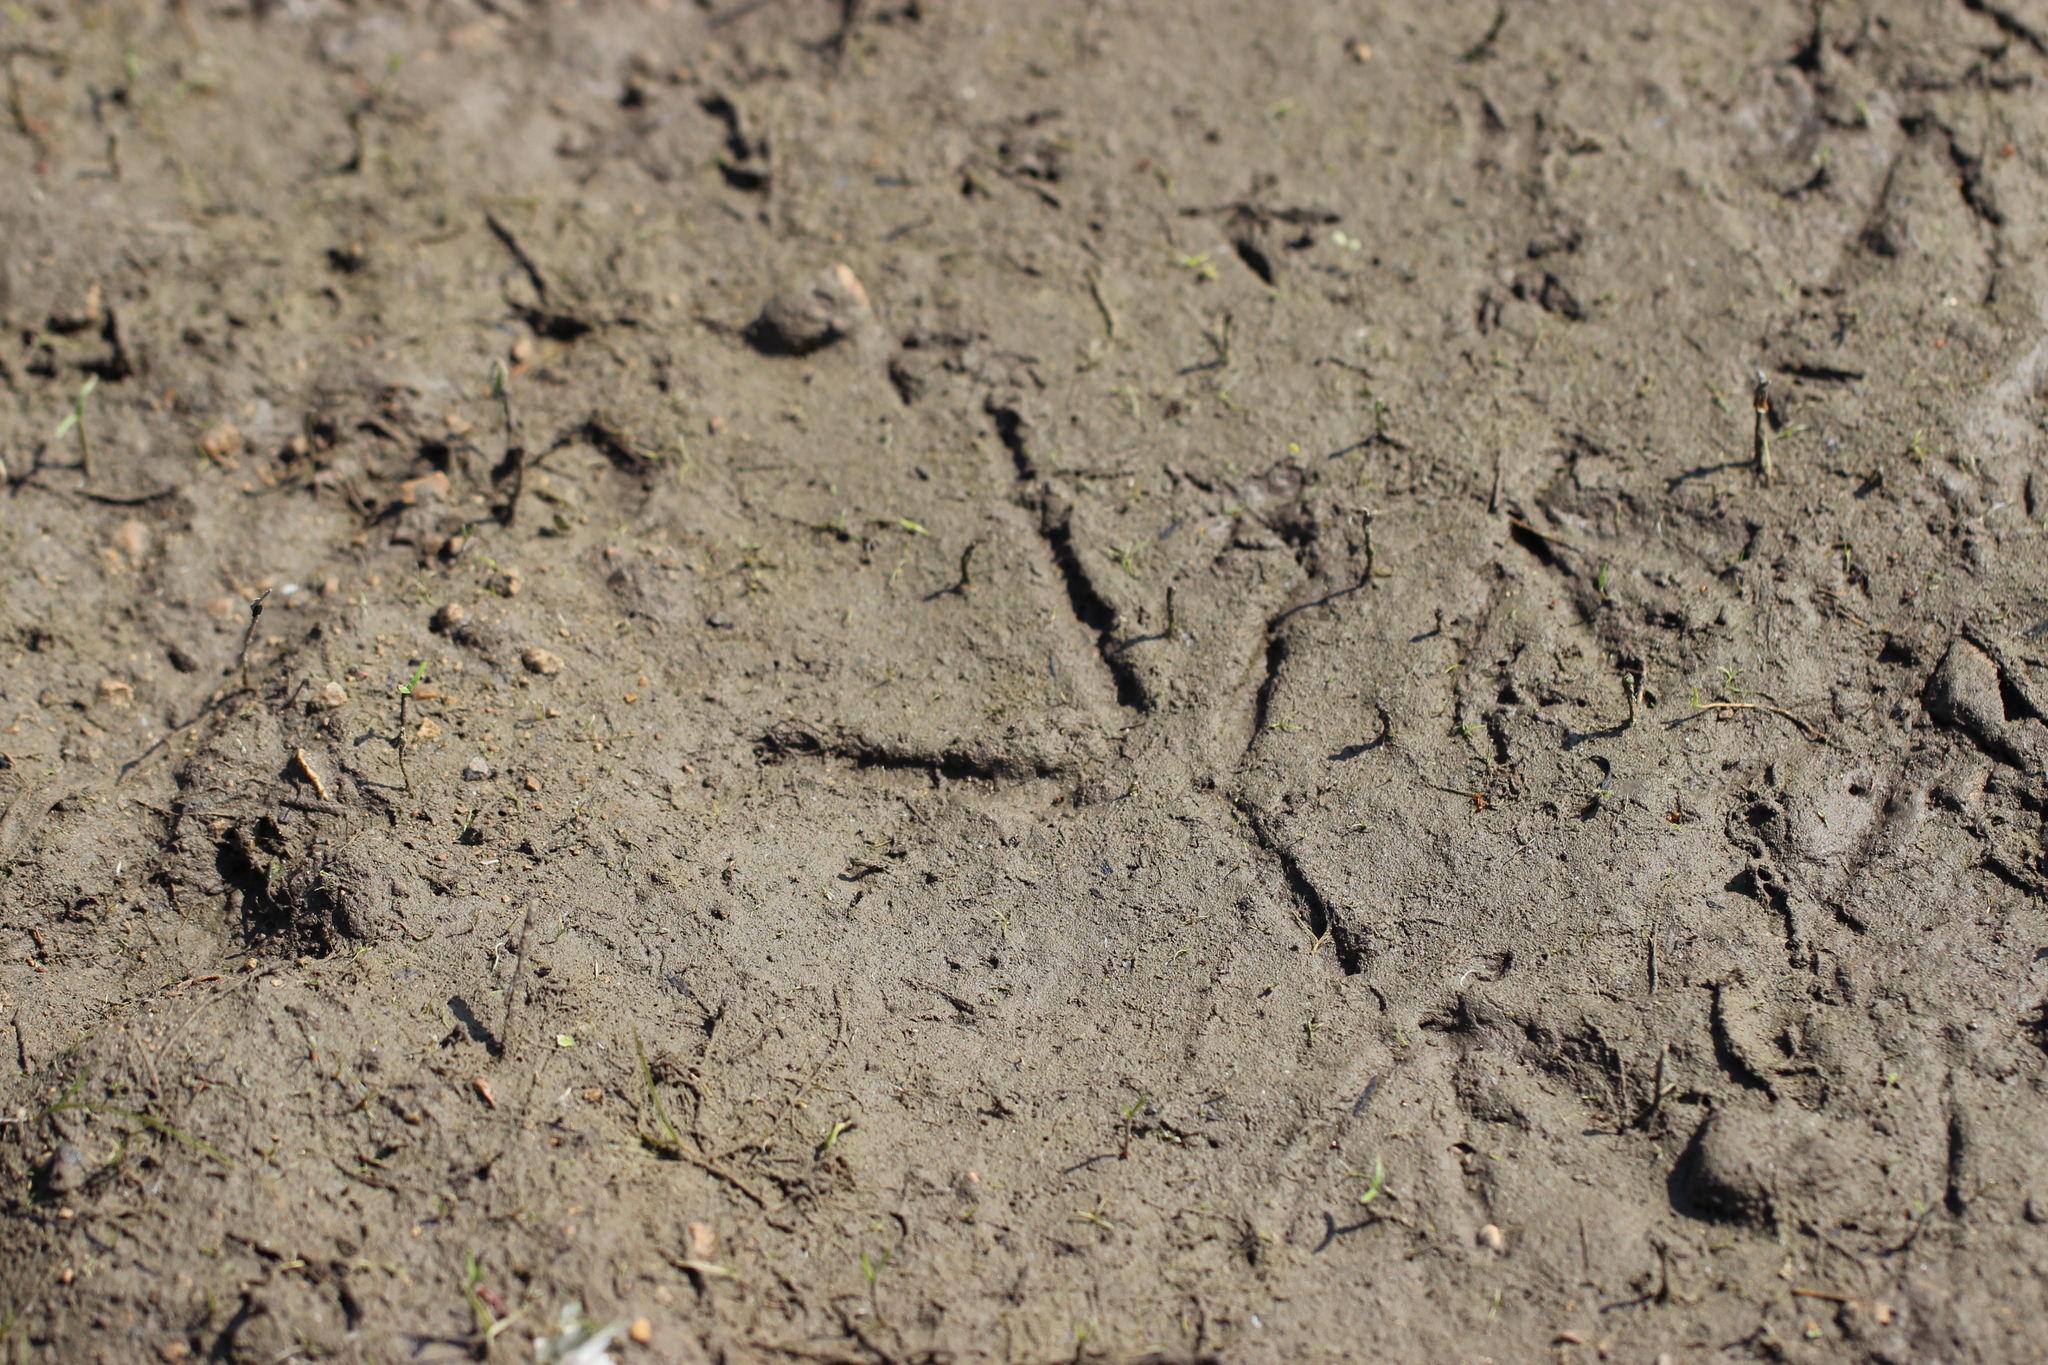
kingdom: Animalia
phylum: Chordata
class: Aves
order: Pelecaniformes
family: Ardeidae
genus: Ardea
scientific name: Ardea cinerea
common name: Grey heron
